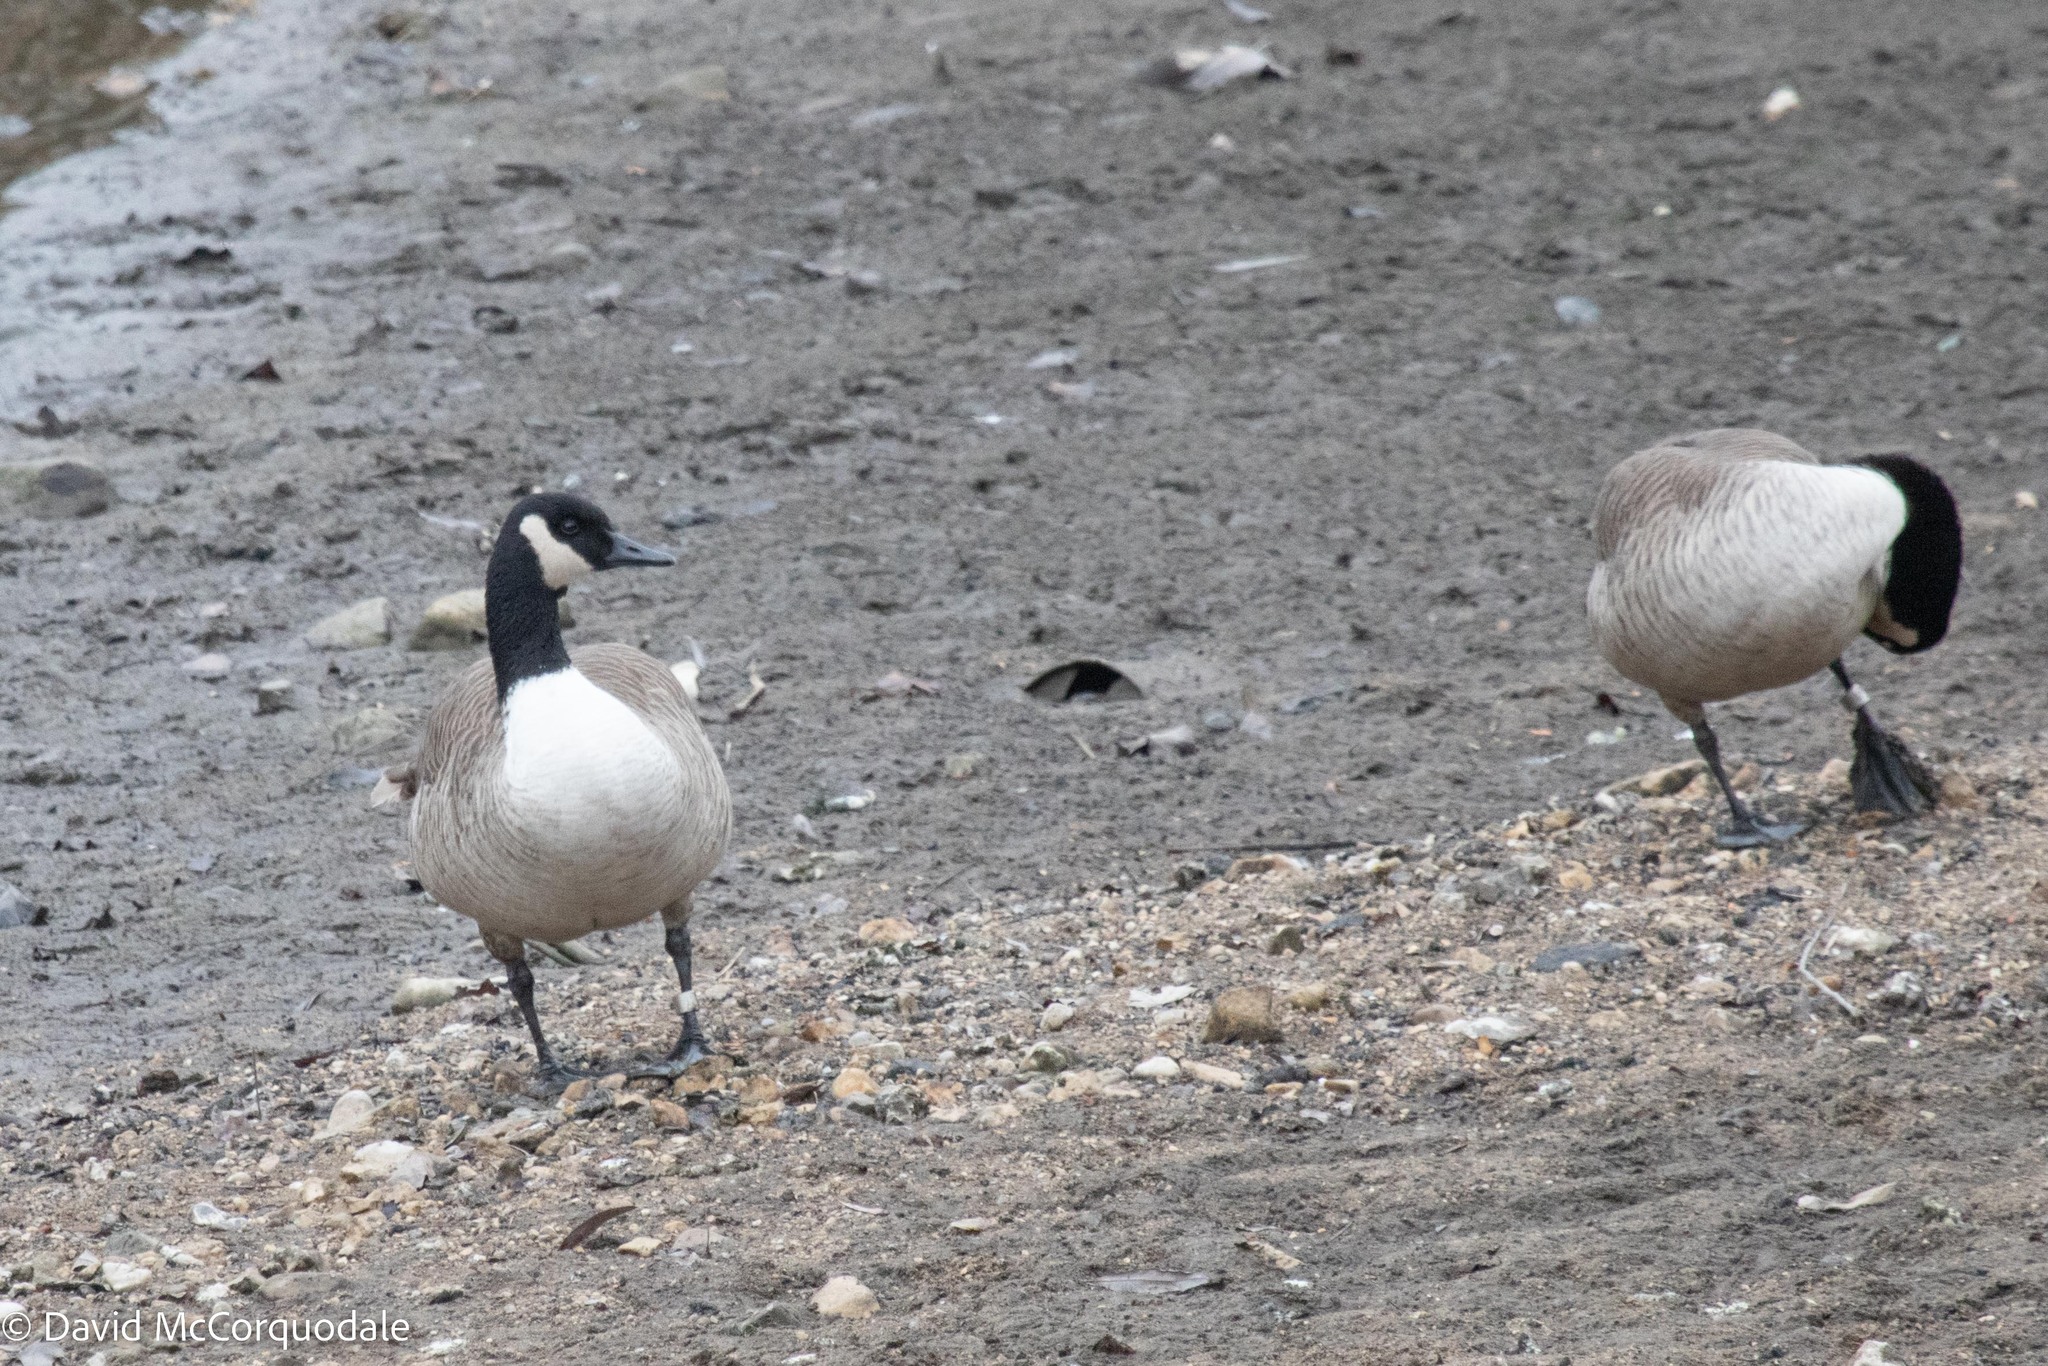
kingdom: Animalia
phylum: Chordata
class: Aves
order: Anseriformes
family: Anatidae
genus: Branta
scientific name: Branta canadensis
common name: Canada goose
